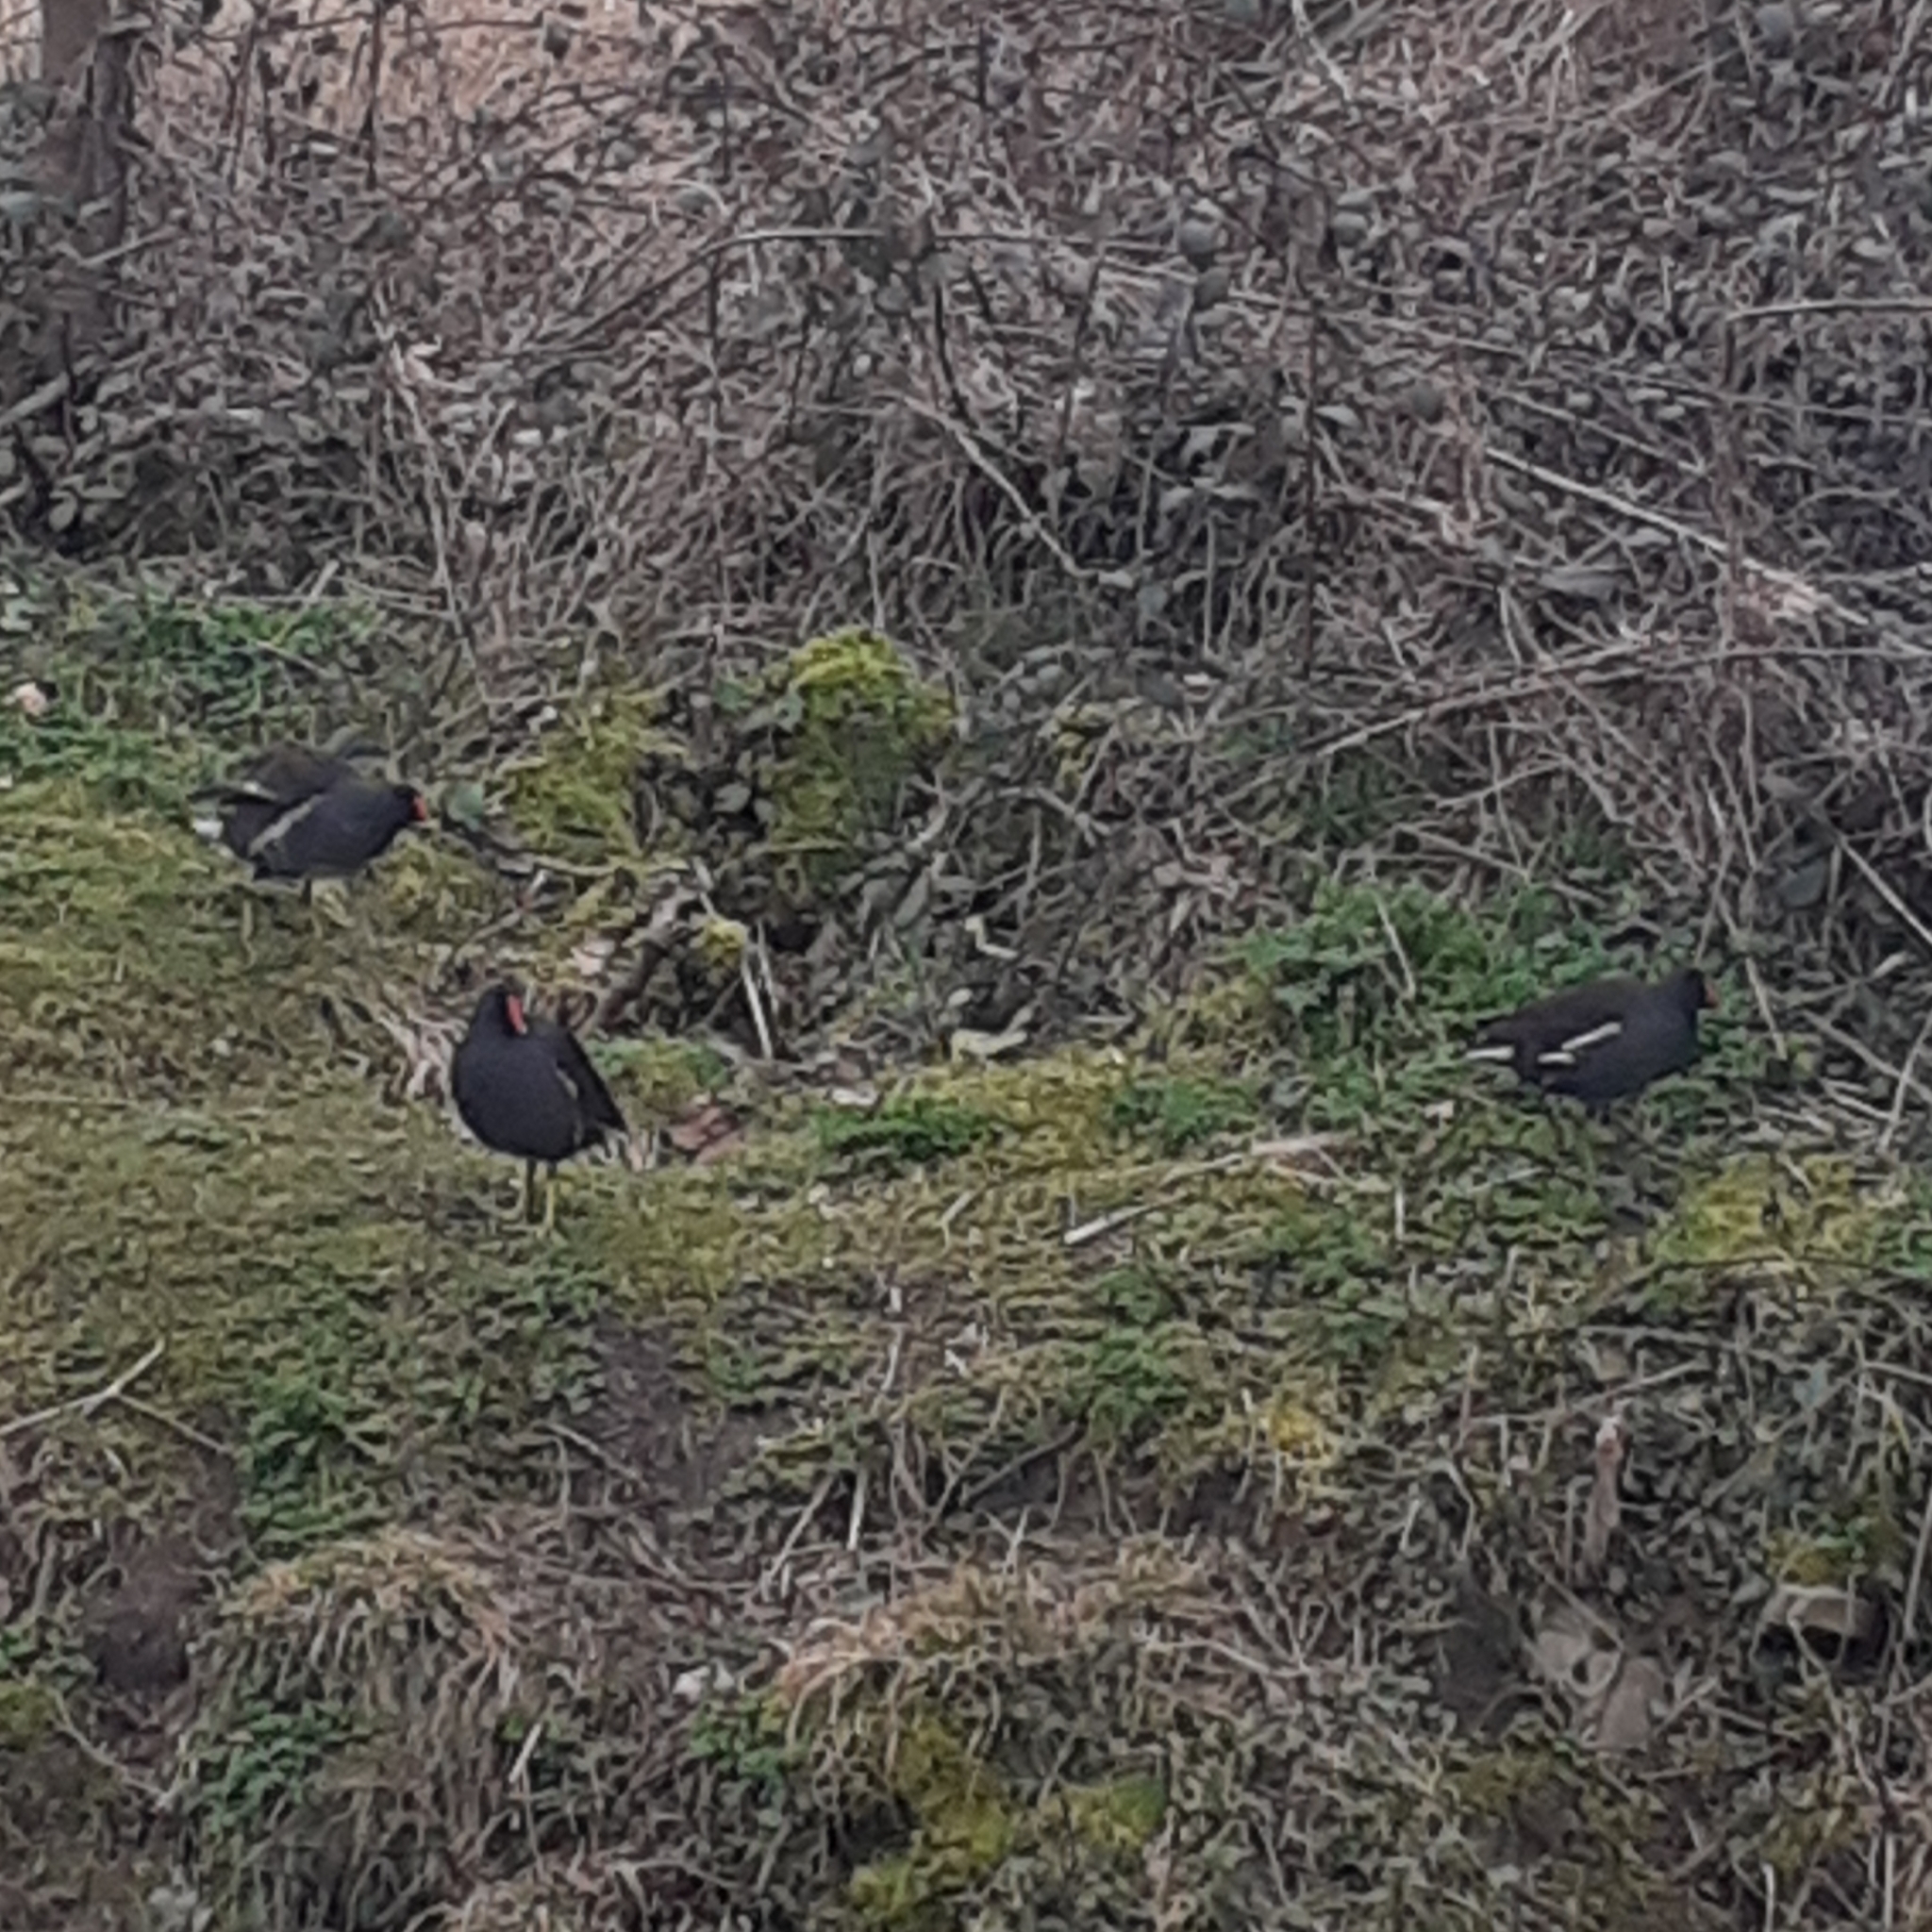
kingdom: Animalia
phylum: Chordata
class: Aves
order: Gruiformes
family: Rallidae
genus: Gallinula
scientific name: Gallinula chloropus
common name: Common moorhen
